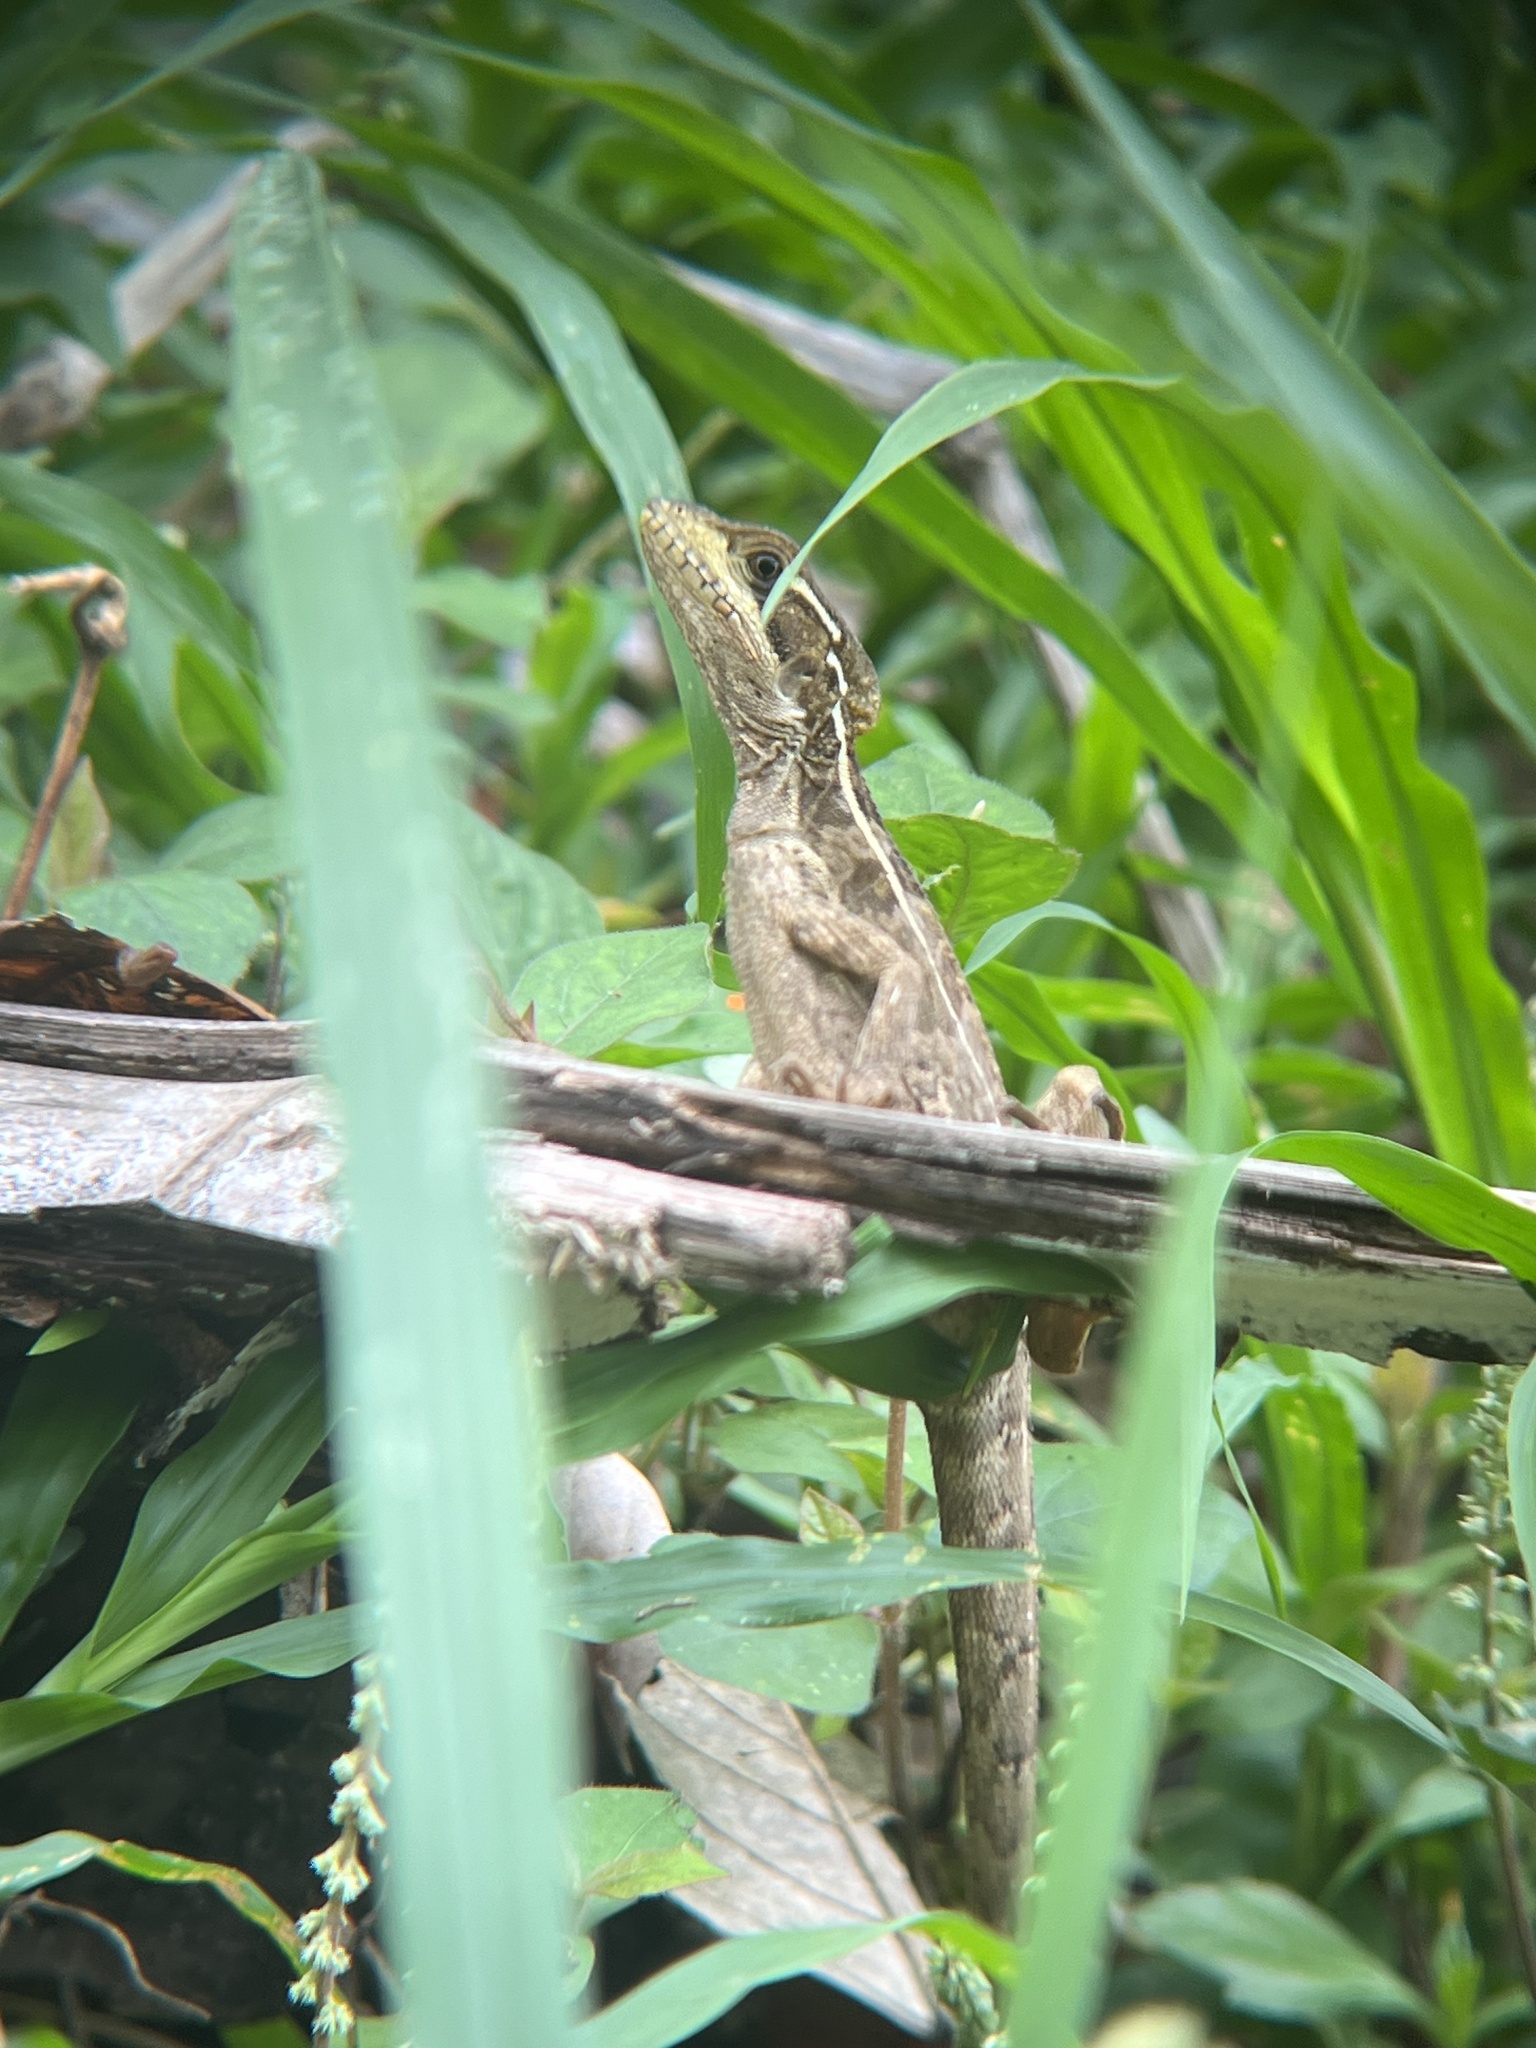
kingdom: Animalia
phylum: Chordata
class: Squamata
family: Corytophanidae
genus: Basiliscus
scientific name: Basiliscus vittatus
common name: Brown basilisk
